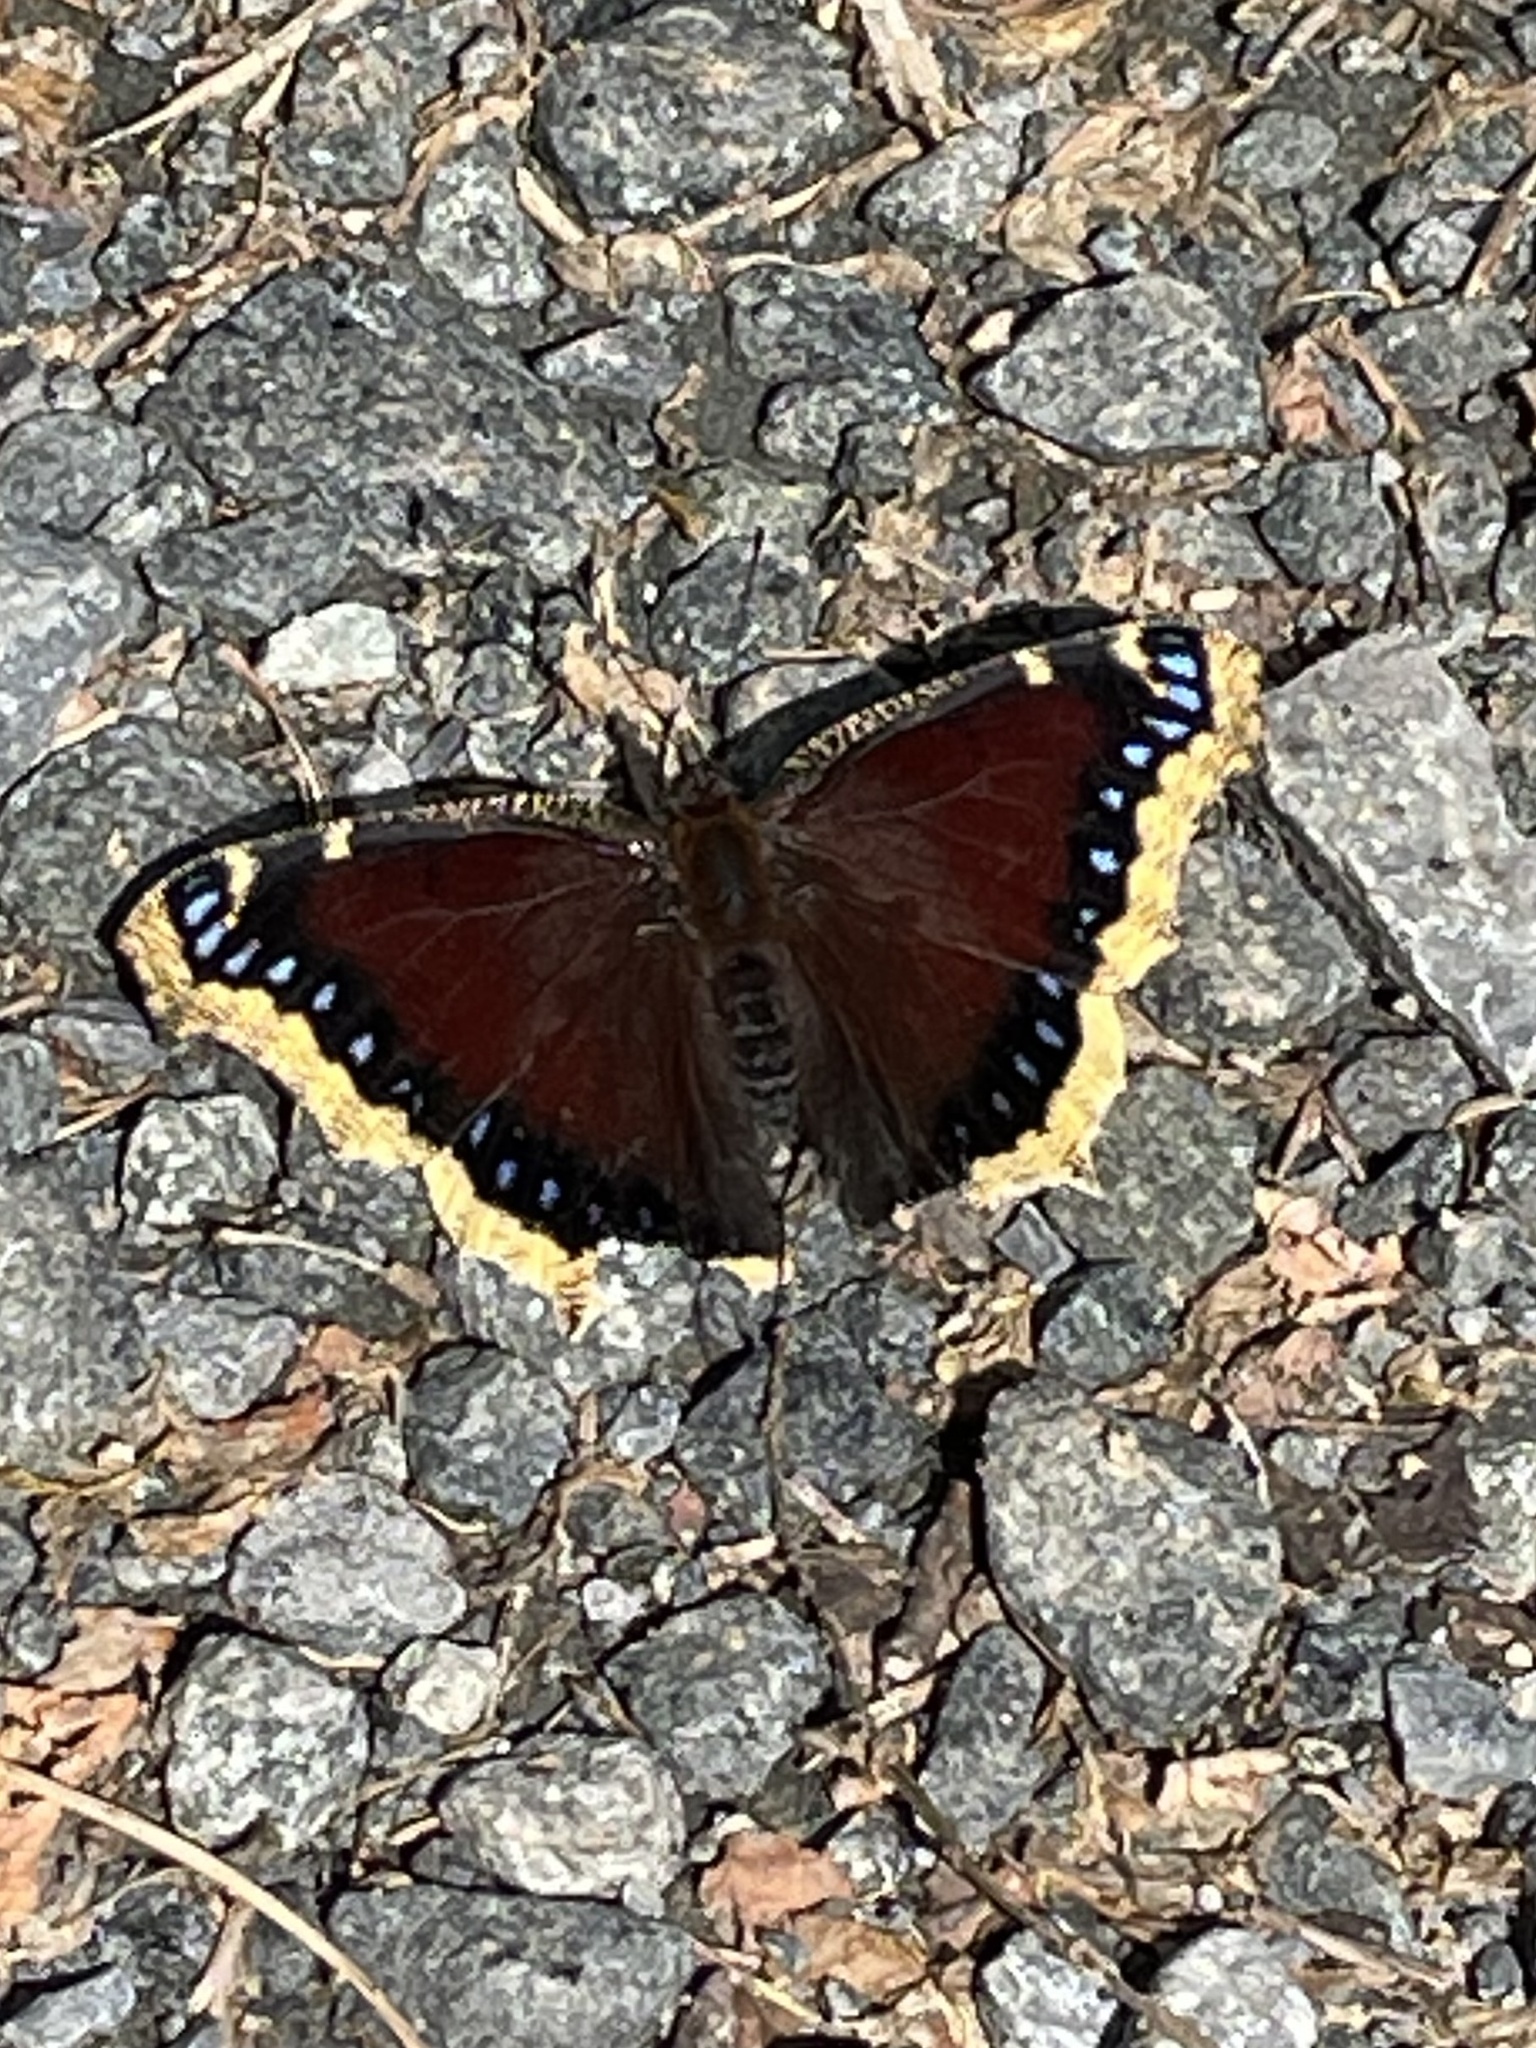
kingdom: Animalia
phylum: Arthropoda
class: Insecta
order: Lepidoptera
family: Nymphalidae
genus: Nymphalis
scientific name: Nymphalis antiopa
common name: Camberwell beauty
